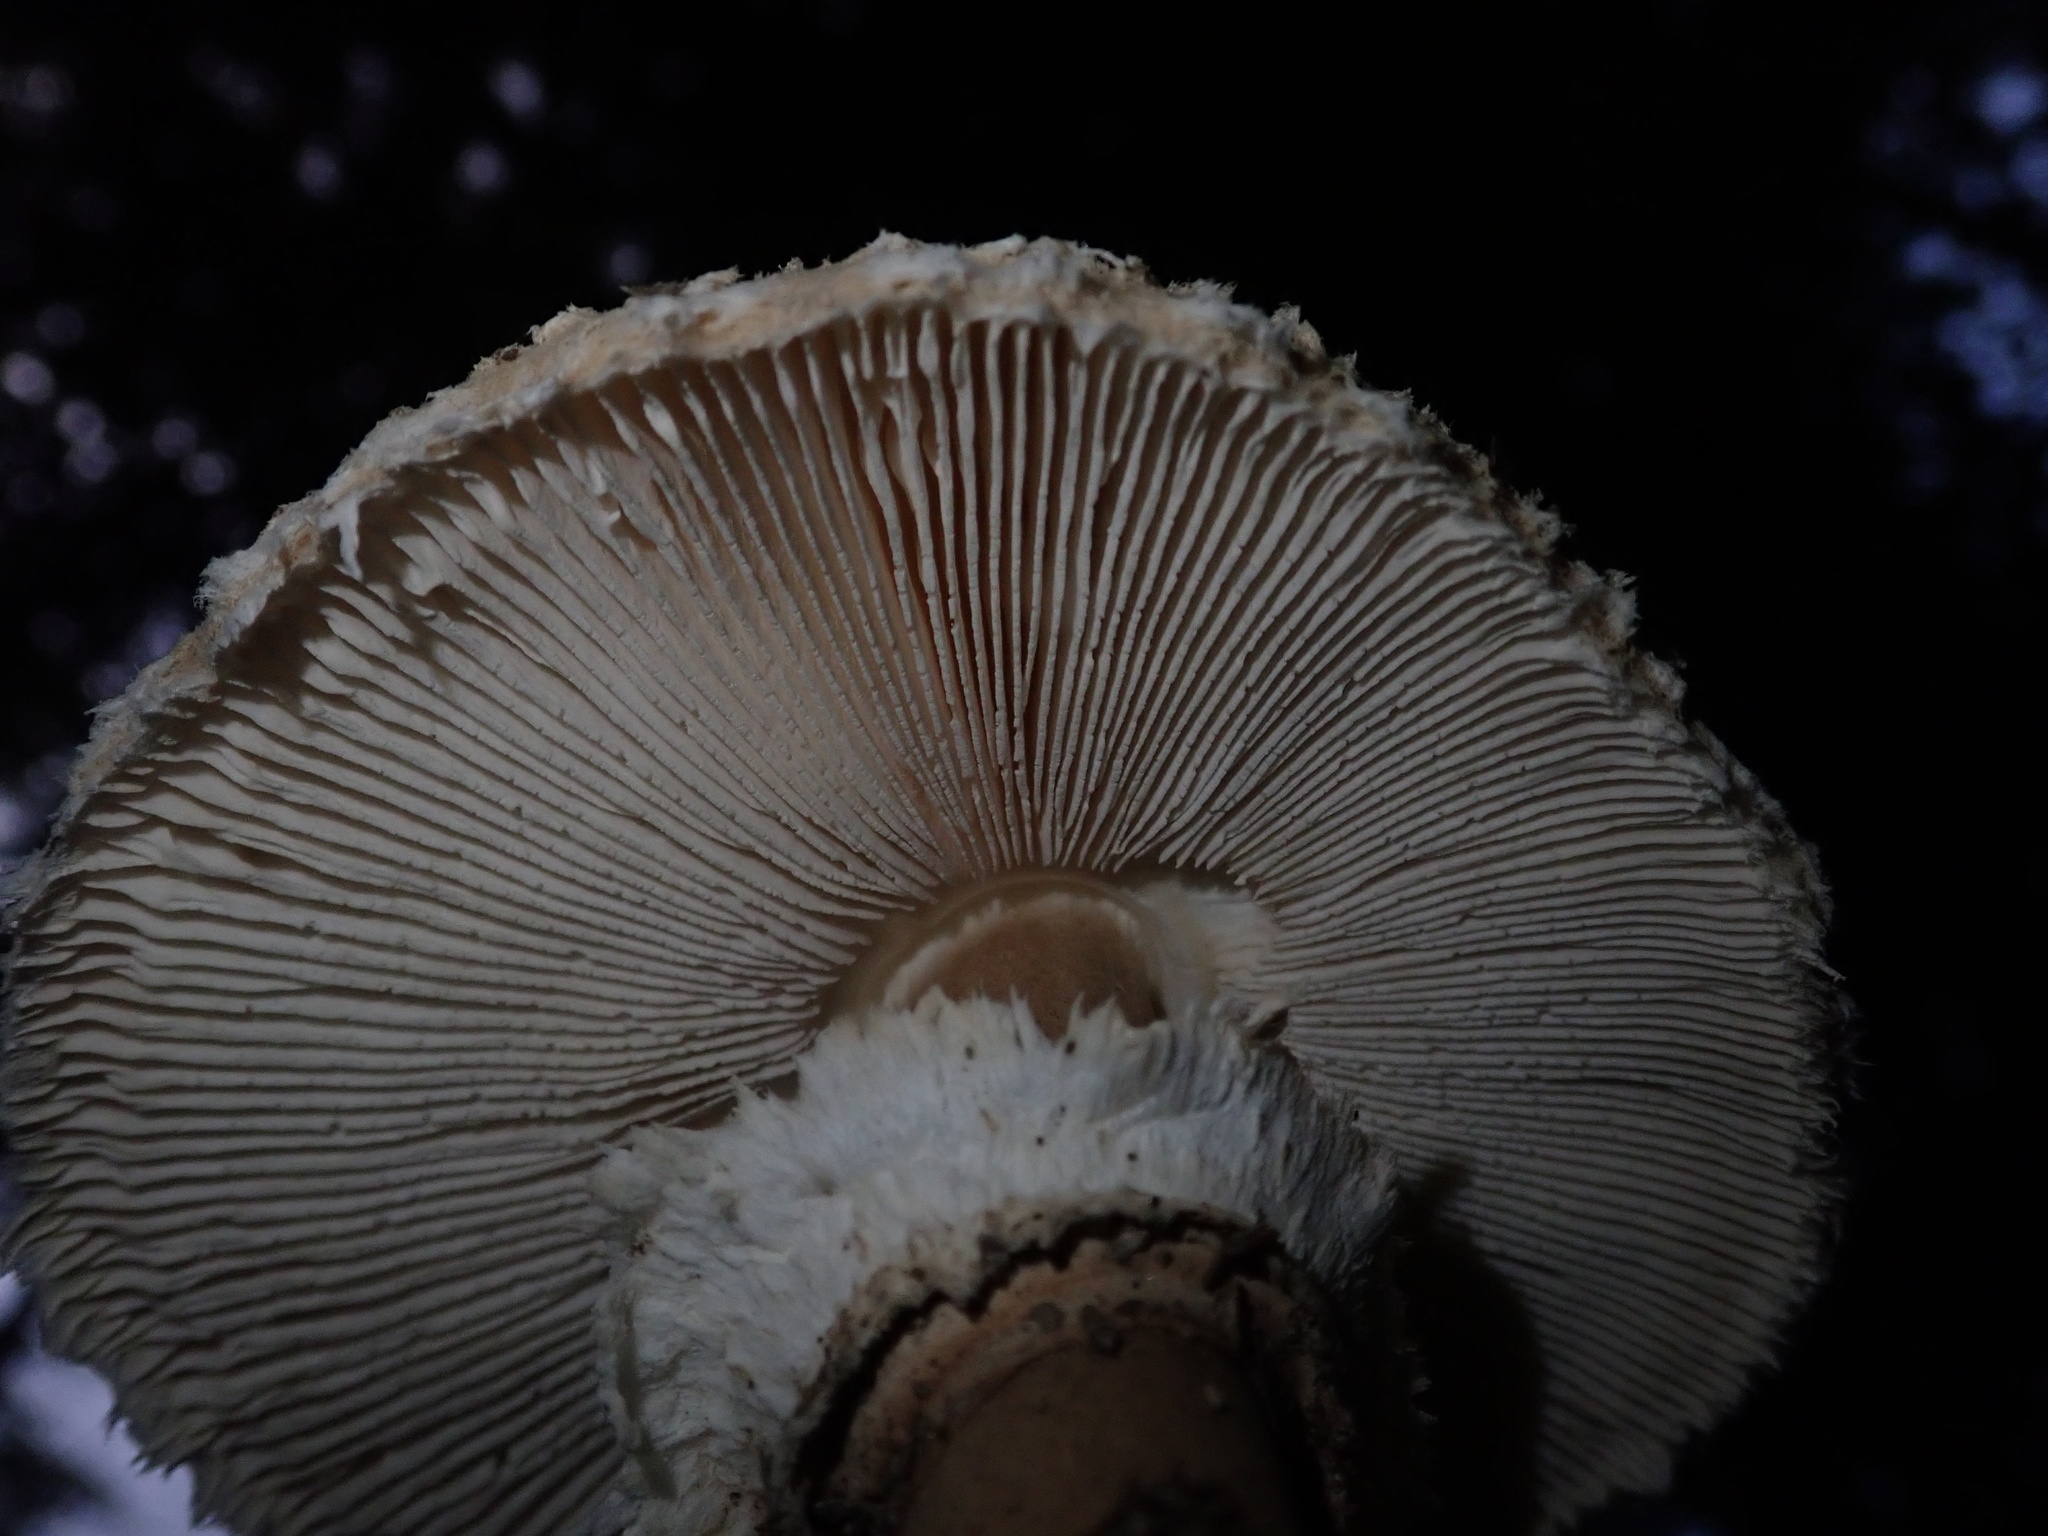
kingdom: Fungi
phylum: Basidiomycota
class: Agaricomycetes
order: Agaricales
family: Agaricaceae
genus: Macrolepiota
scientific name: Macrolepiota procera
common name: Parasol
